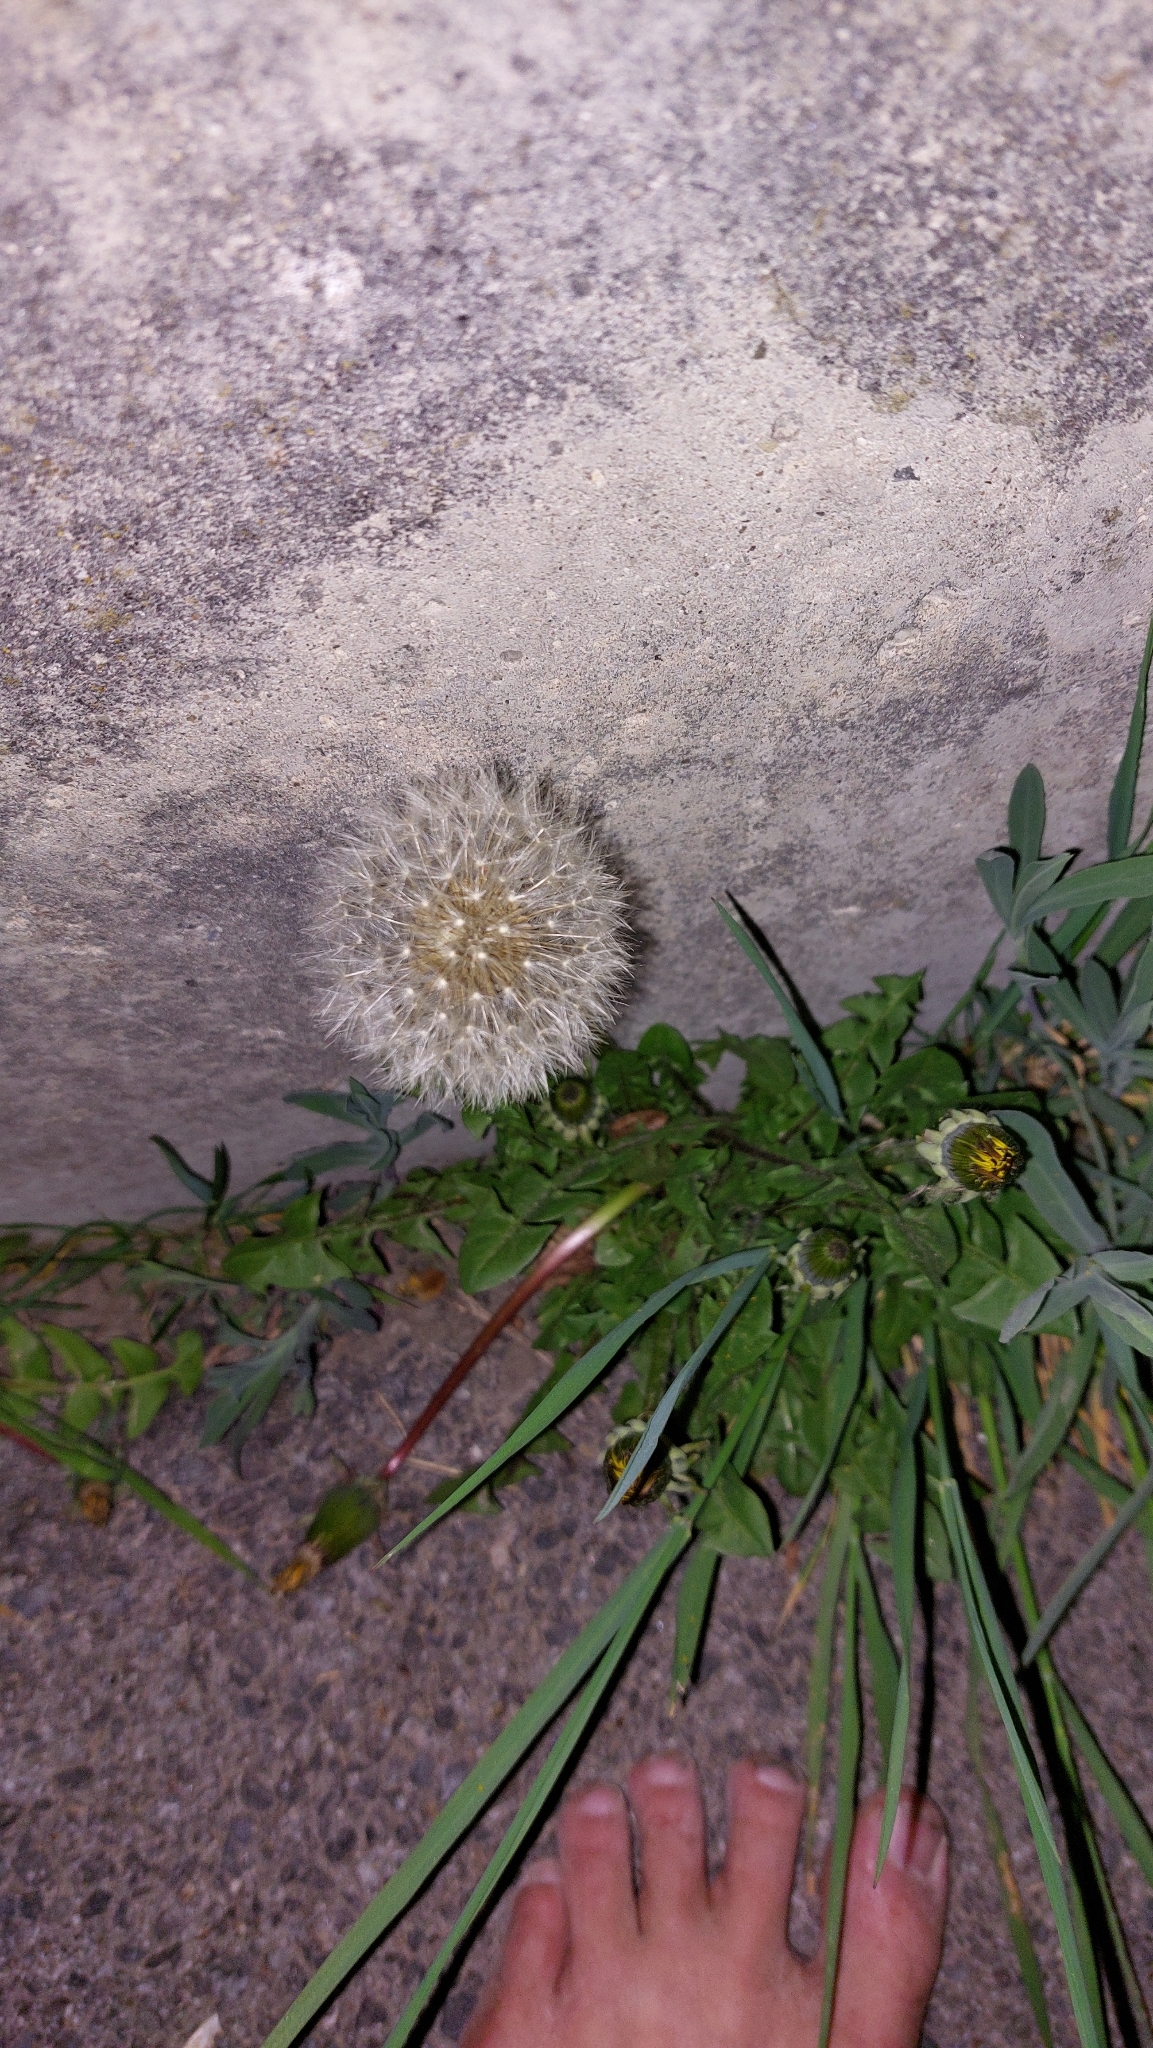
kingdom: Plantae
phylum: Tracheophyta
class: Magnoliopsida
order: Asterales
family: Asteraceae
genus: Taraxacum
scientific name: Taraxacum
